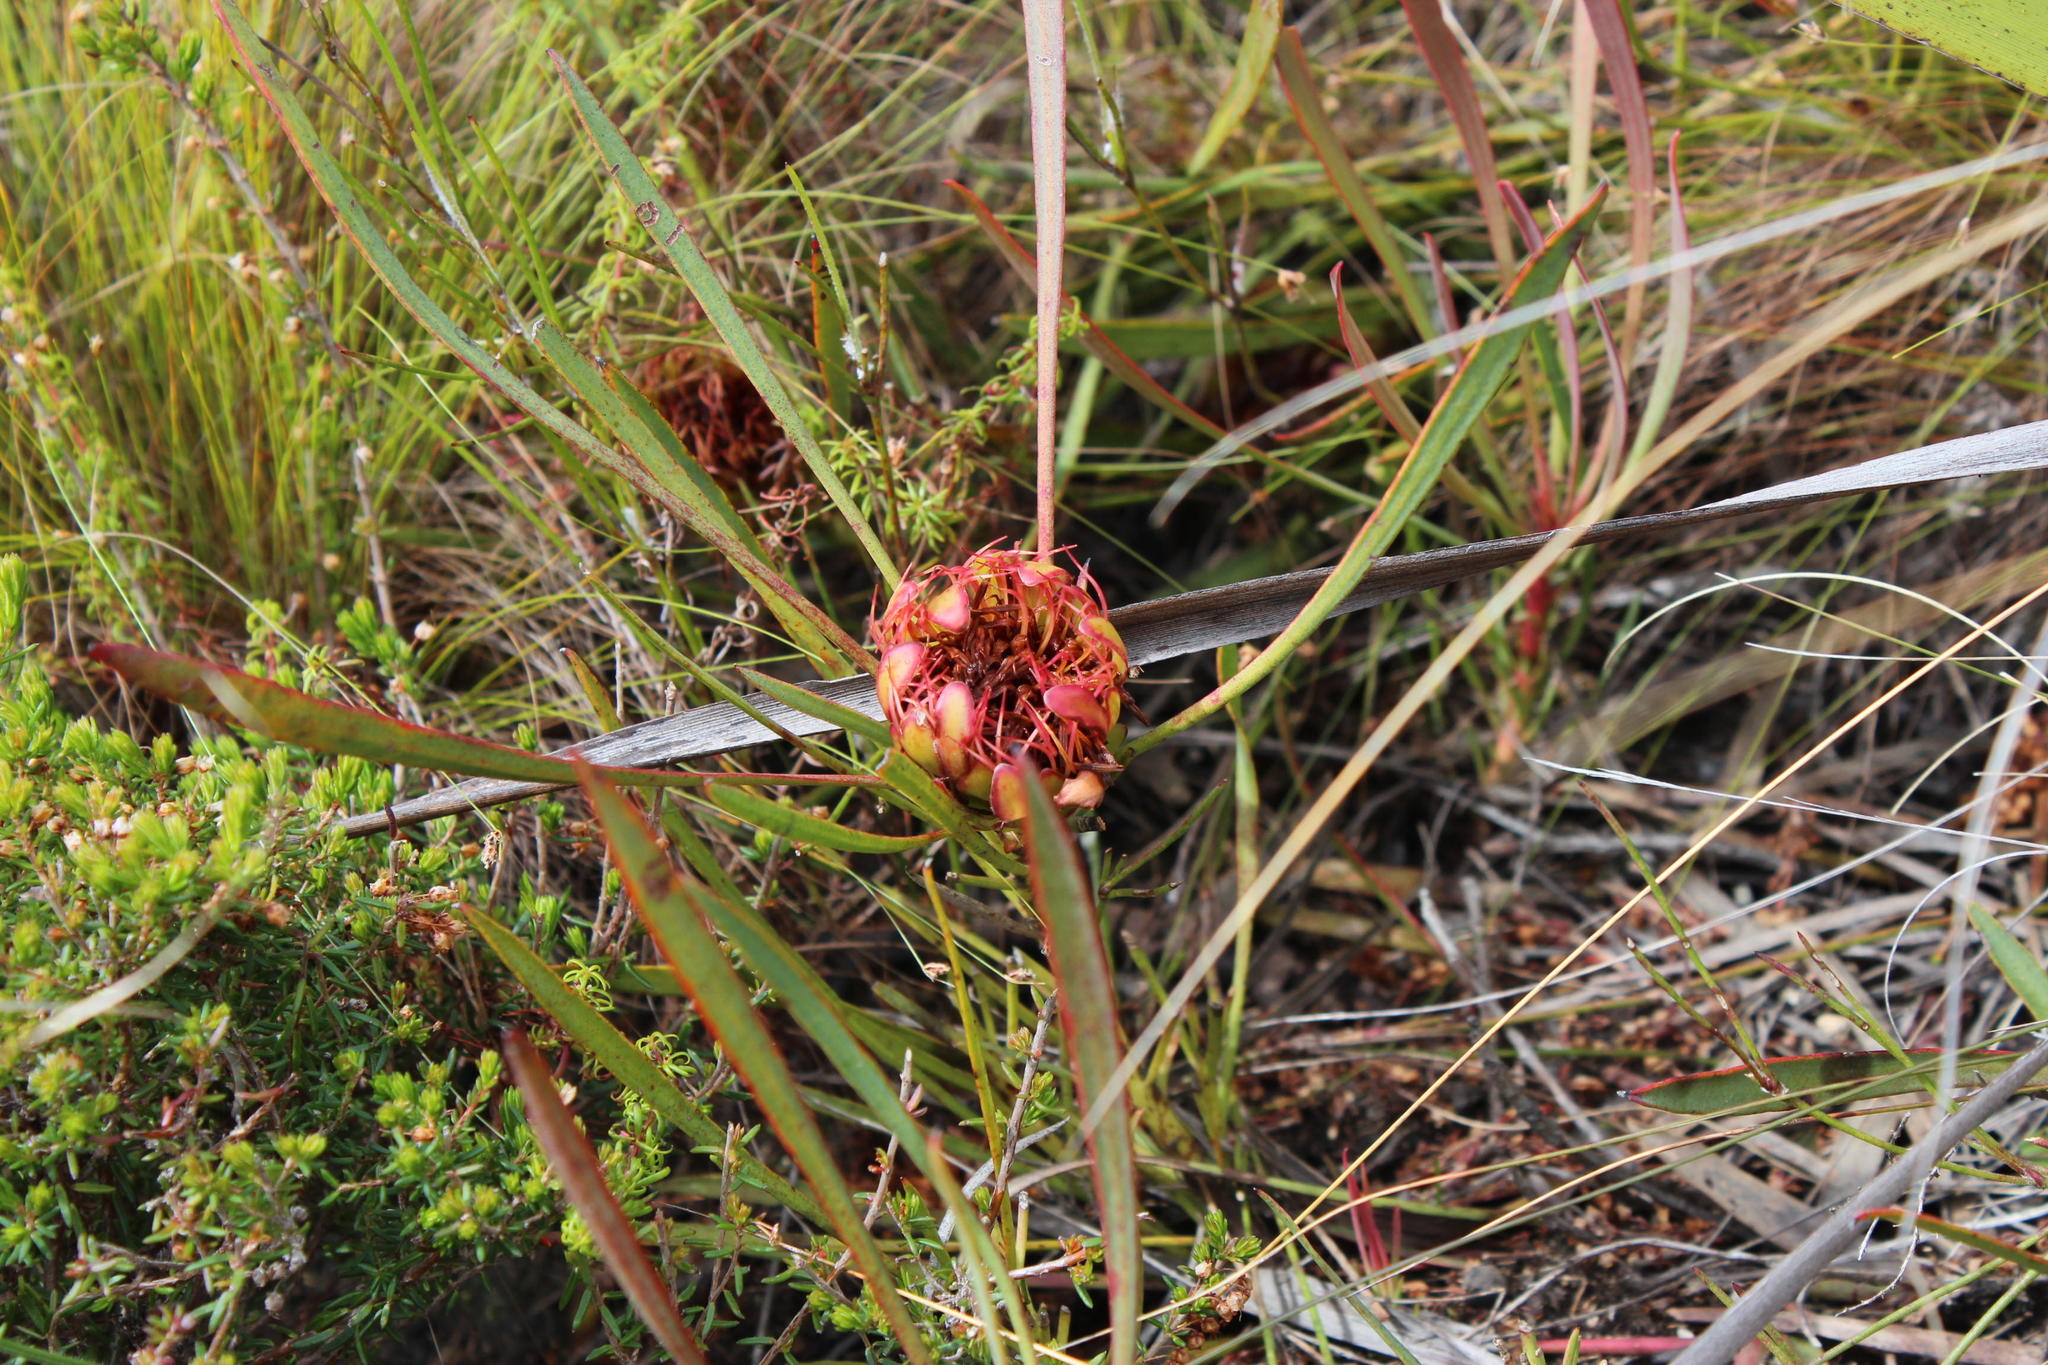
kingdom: Plantae
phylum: Tracheophyta
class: Magnoliopsida
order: Proteales
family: Proteaceae
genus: Protea
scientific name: Protea angustata
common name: Kleinmond sugarbush
